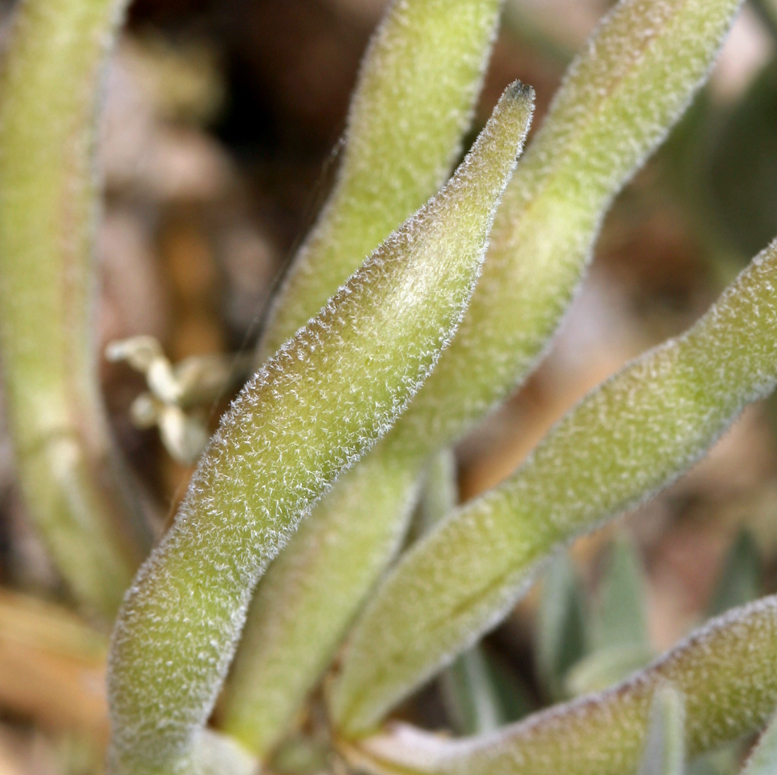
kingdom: Plantae
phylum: Tracheophyta
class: Magnoliopsida
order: Gentianales
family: Apocynaceae
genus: Amsonia
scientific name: Amsonia tomentosa
